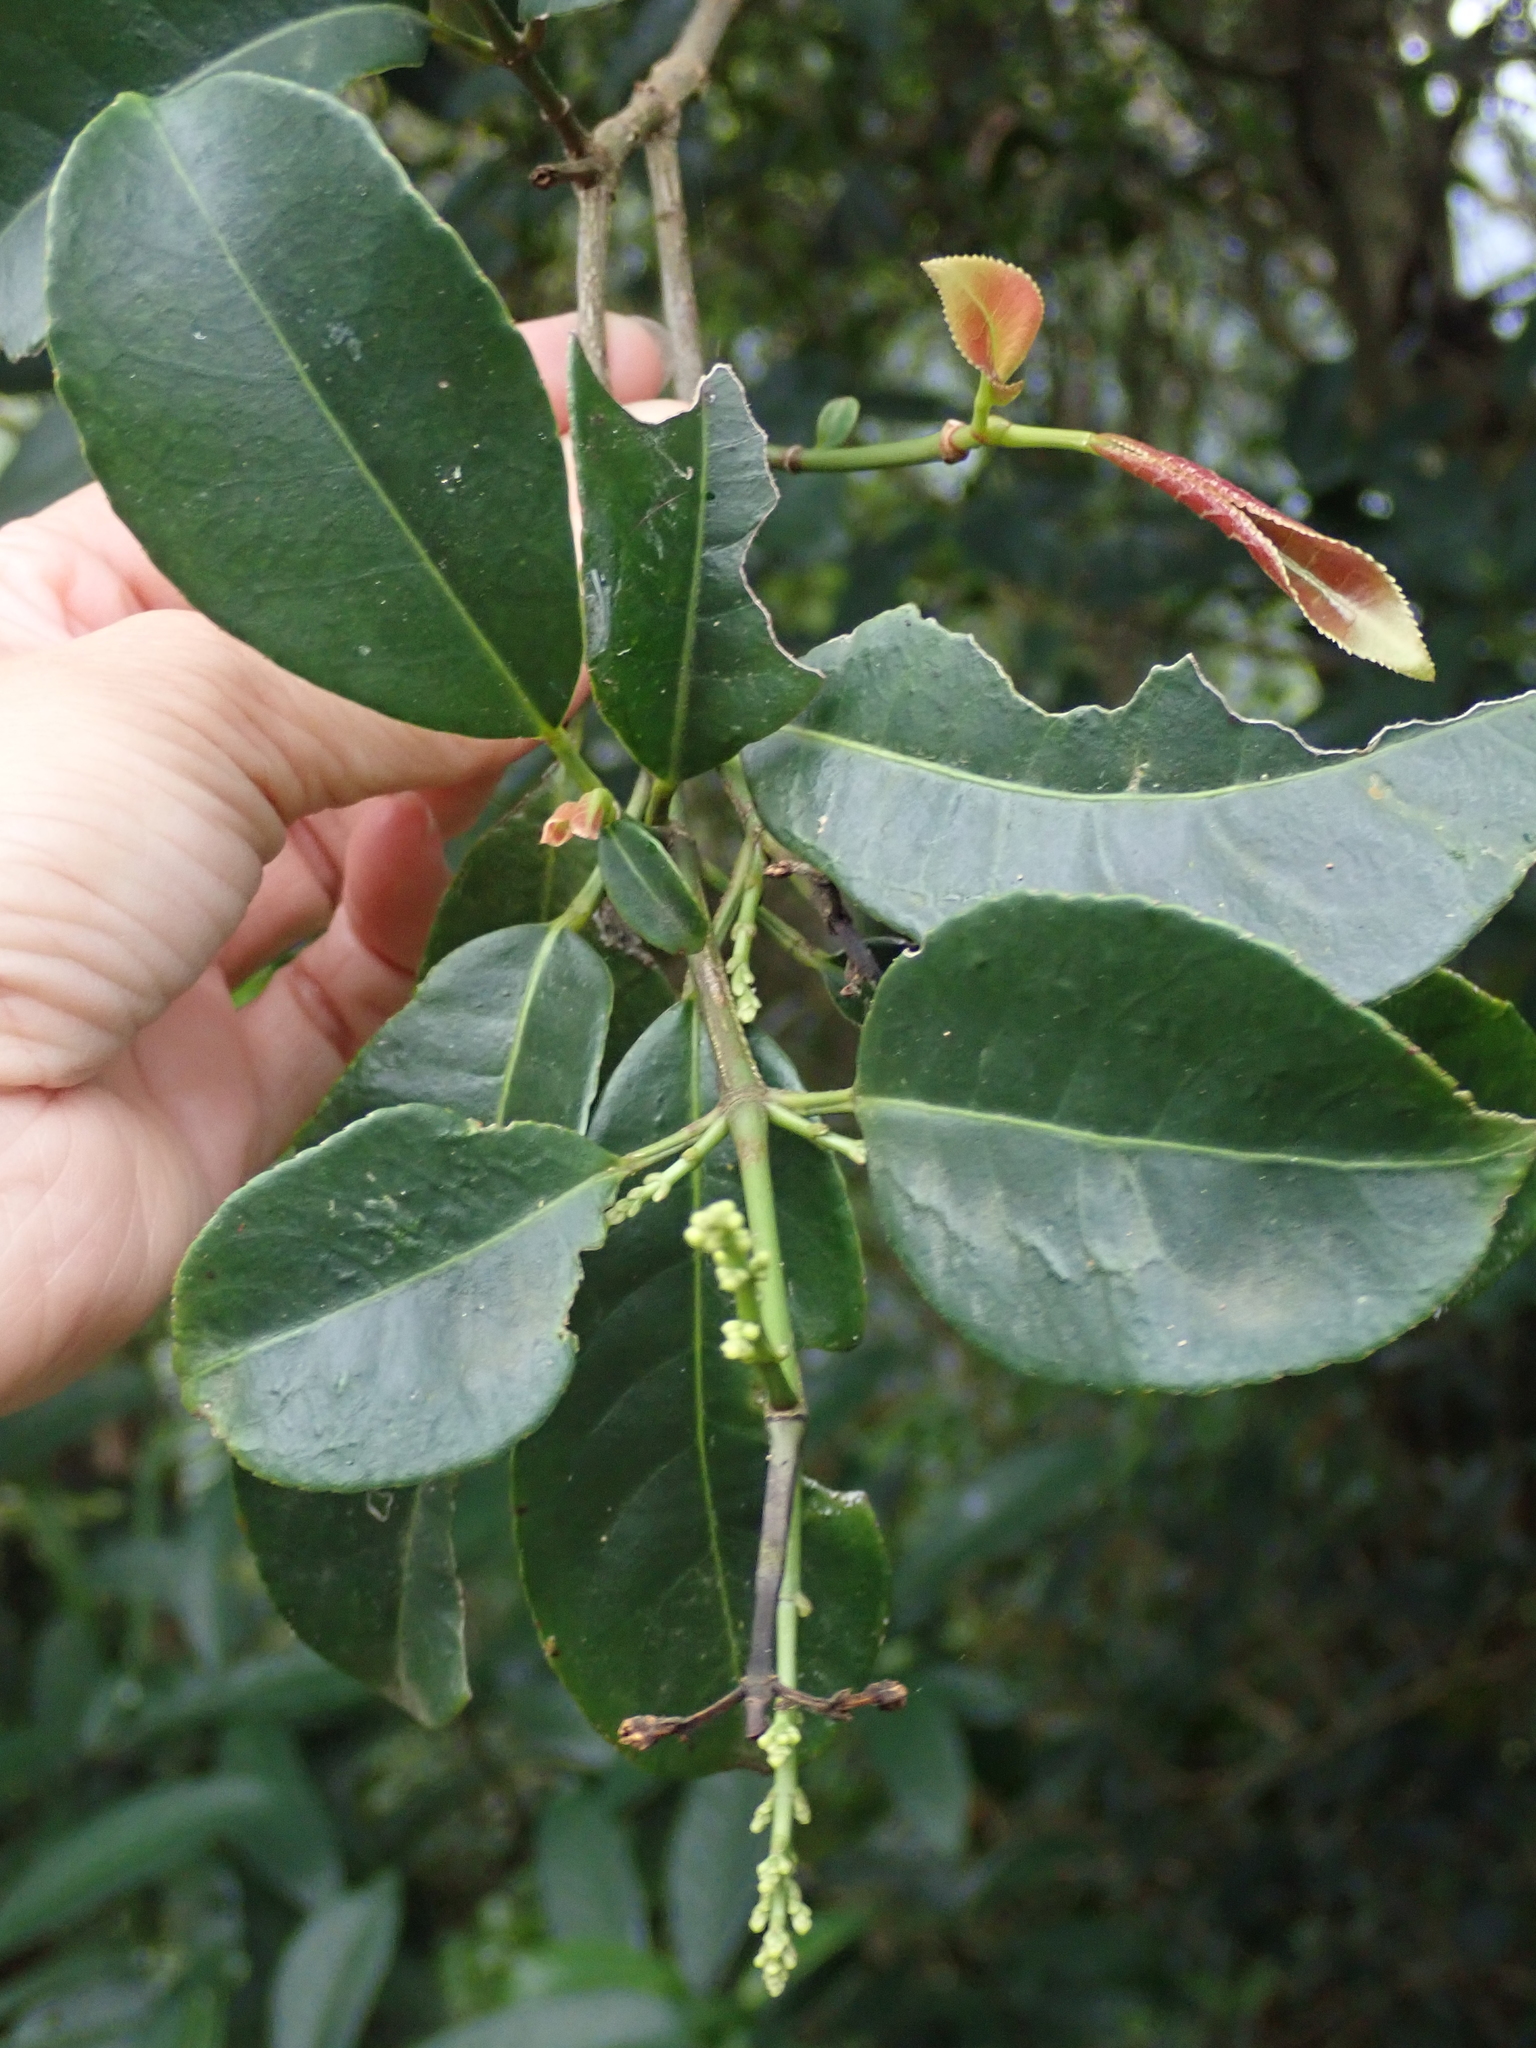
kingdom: Plantae
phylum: Tracheophyta
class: Magnoliopsida
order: Crossosomatales
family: Staphyleaceae
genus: Turpinia
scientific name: Turpinia formosana
